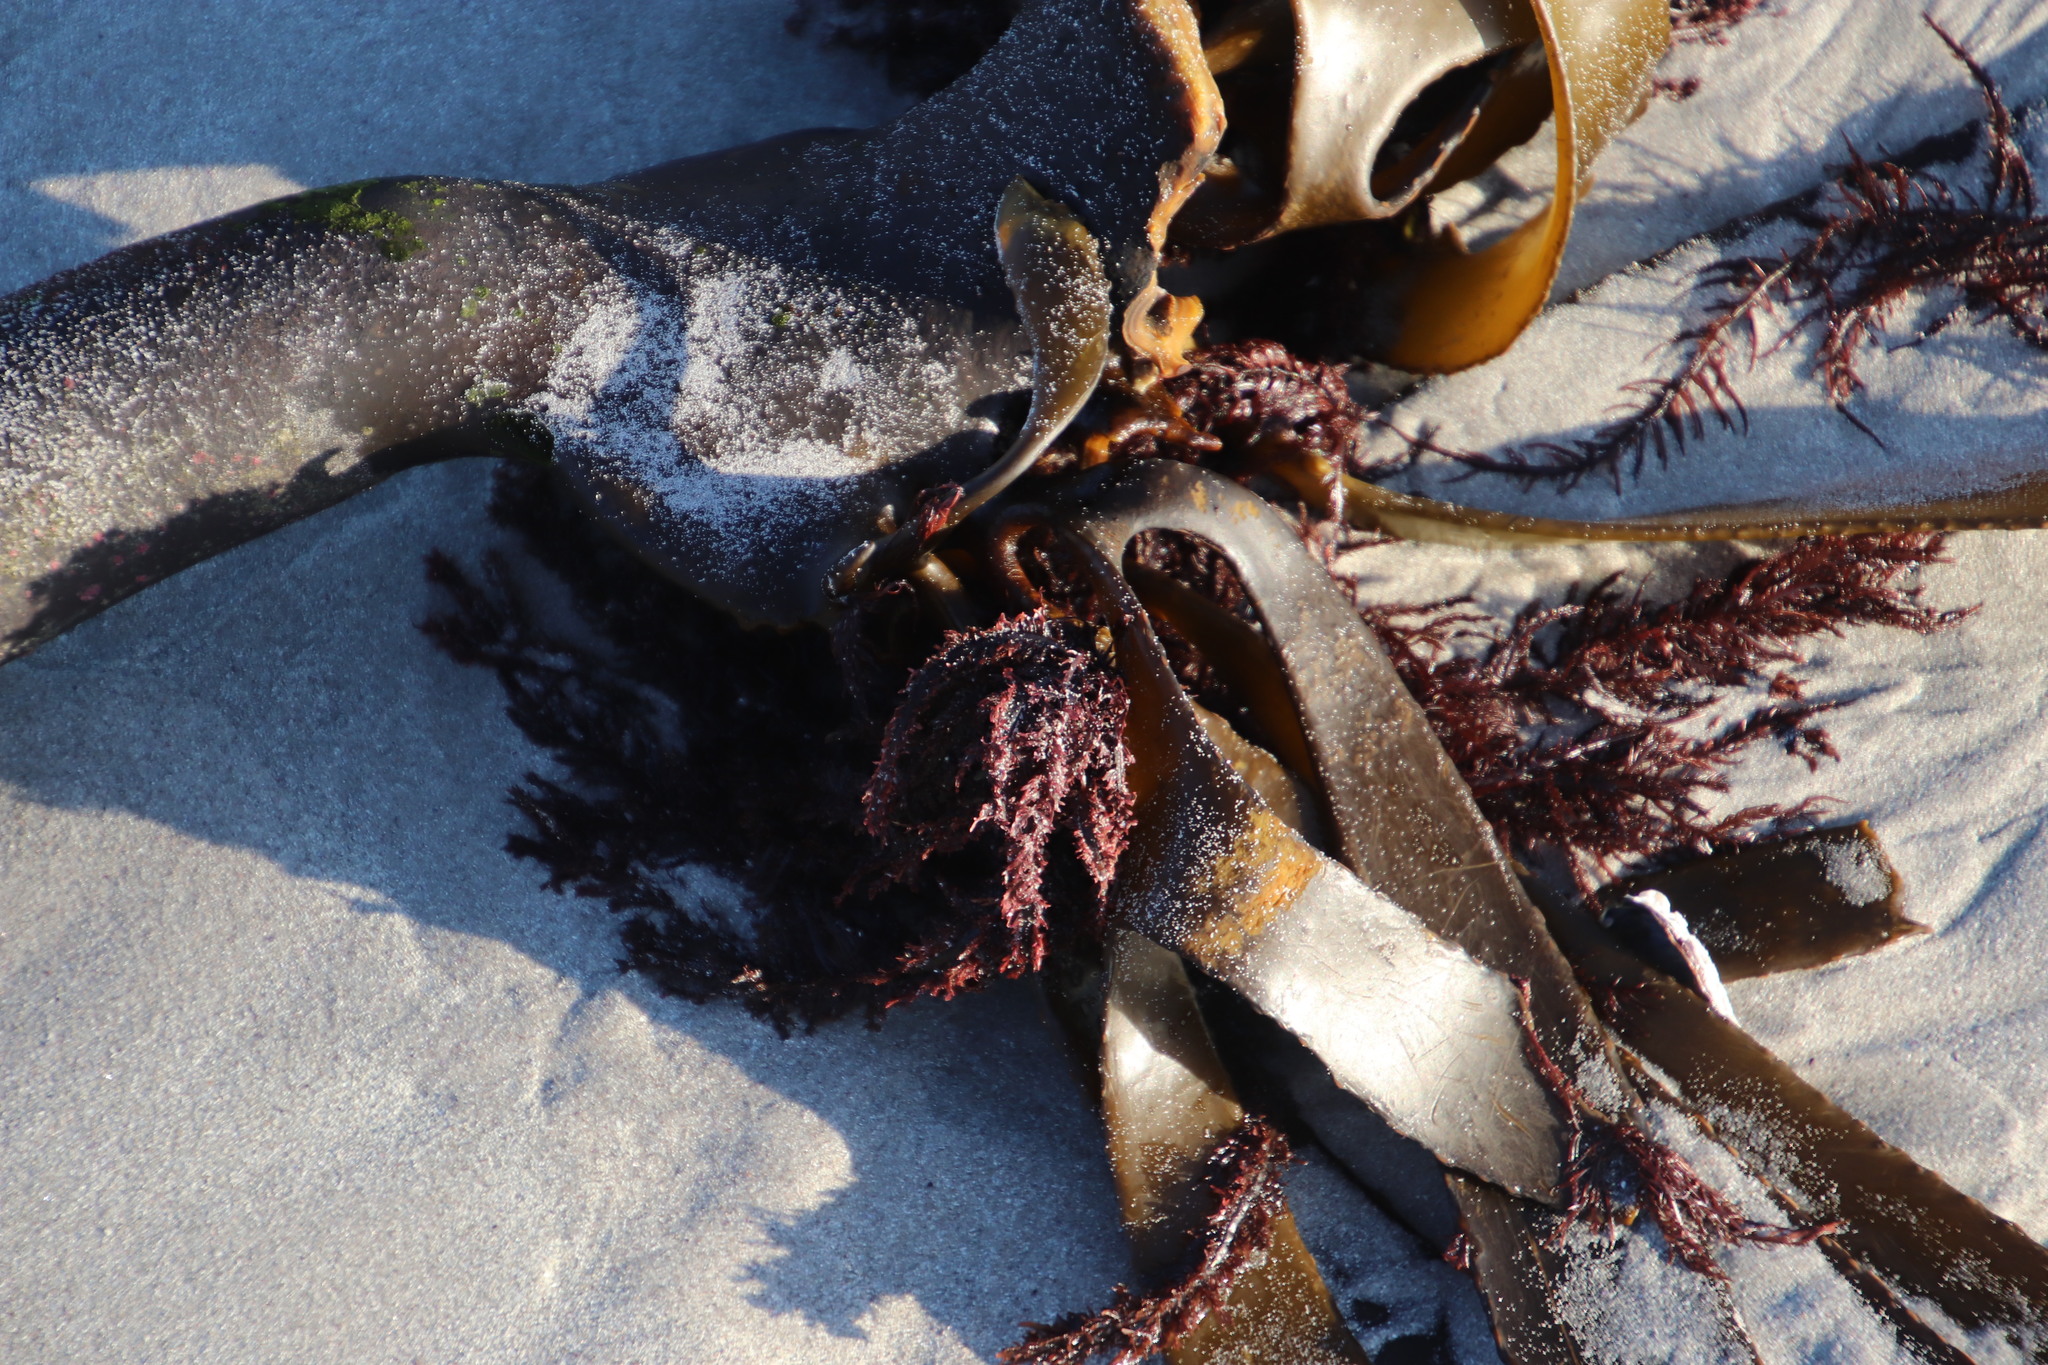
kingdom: Plantae
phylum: Rhodophyta
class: Florideophyceae
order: Ceramiales
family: Ceramiaceae
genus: Ceramium
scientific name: Ceramium
